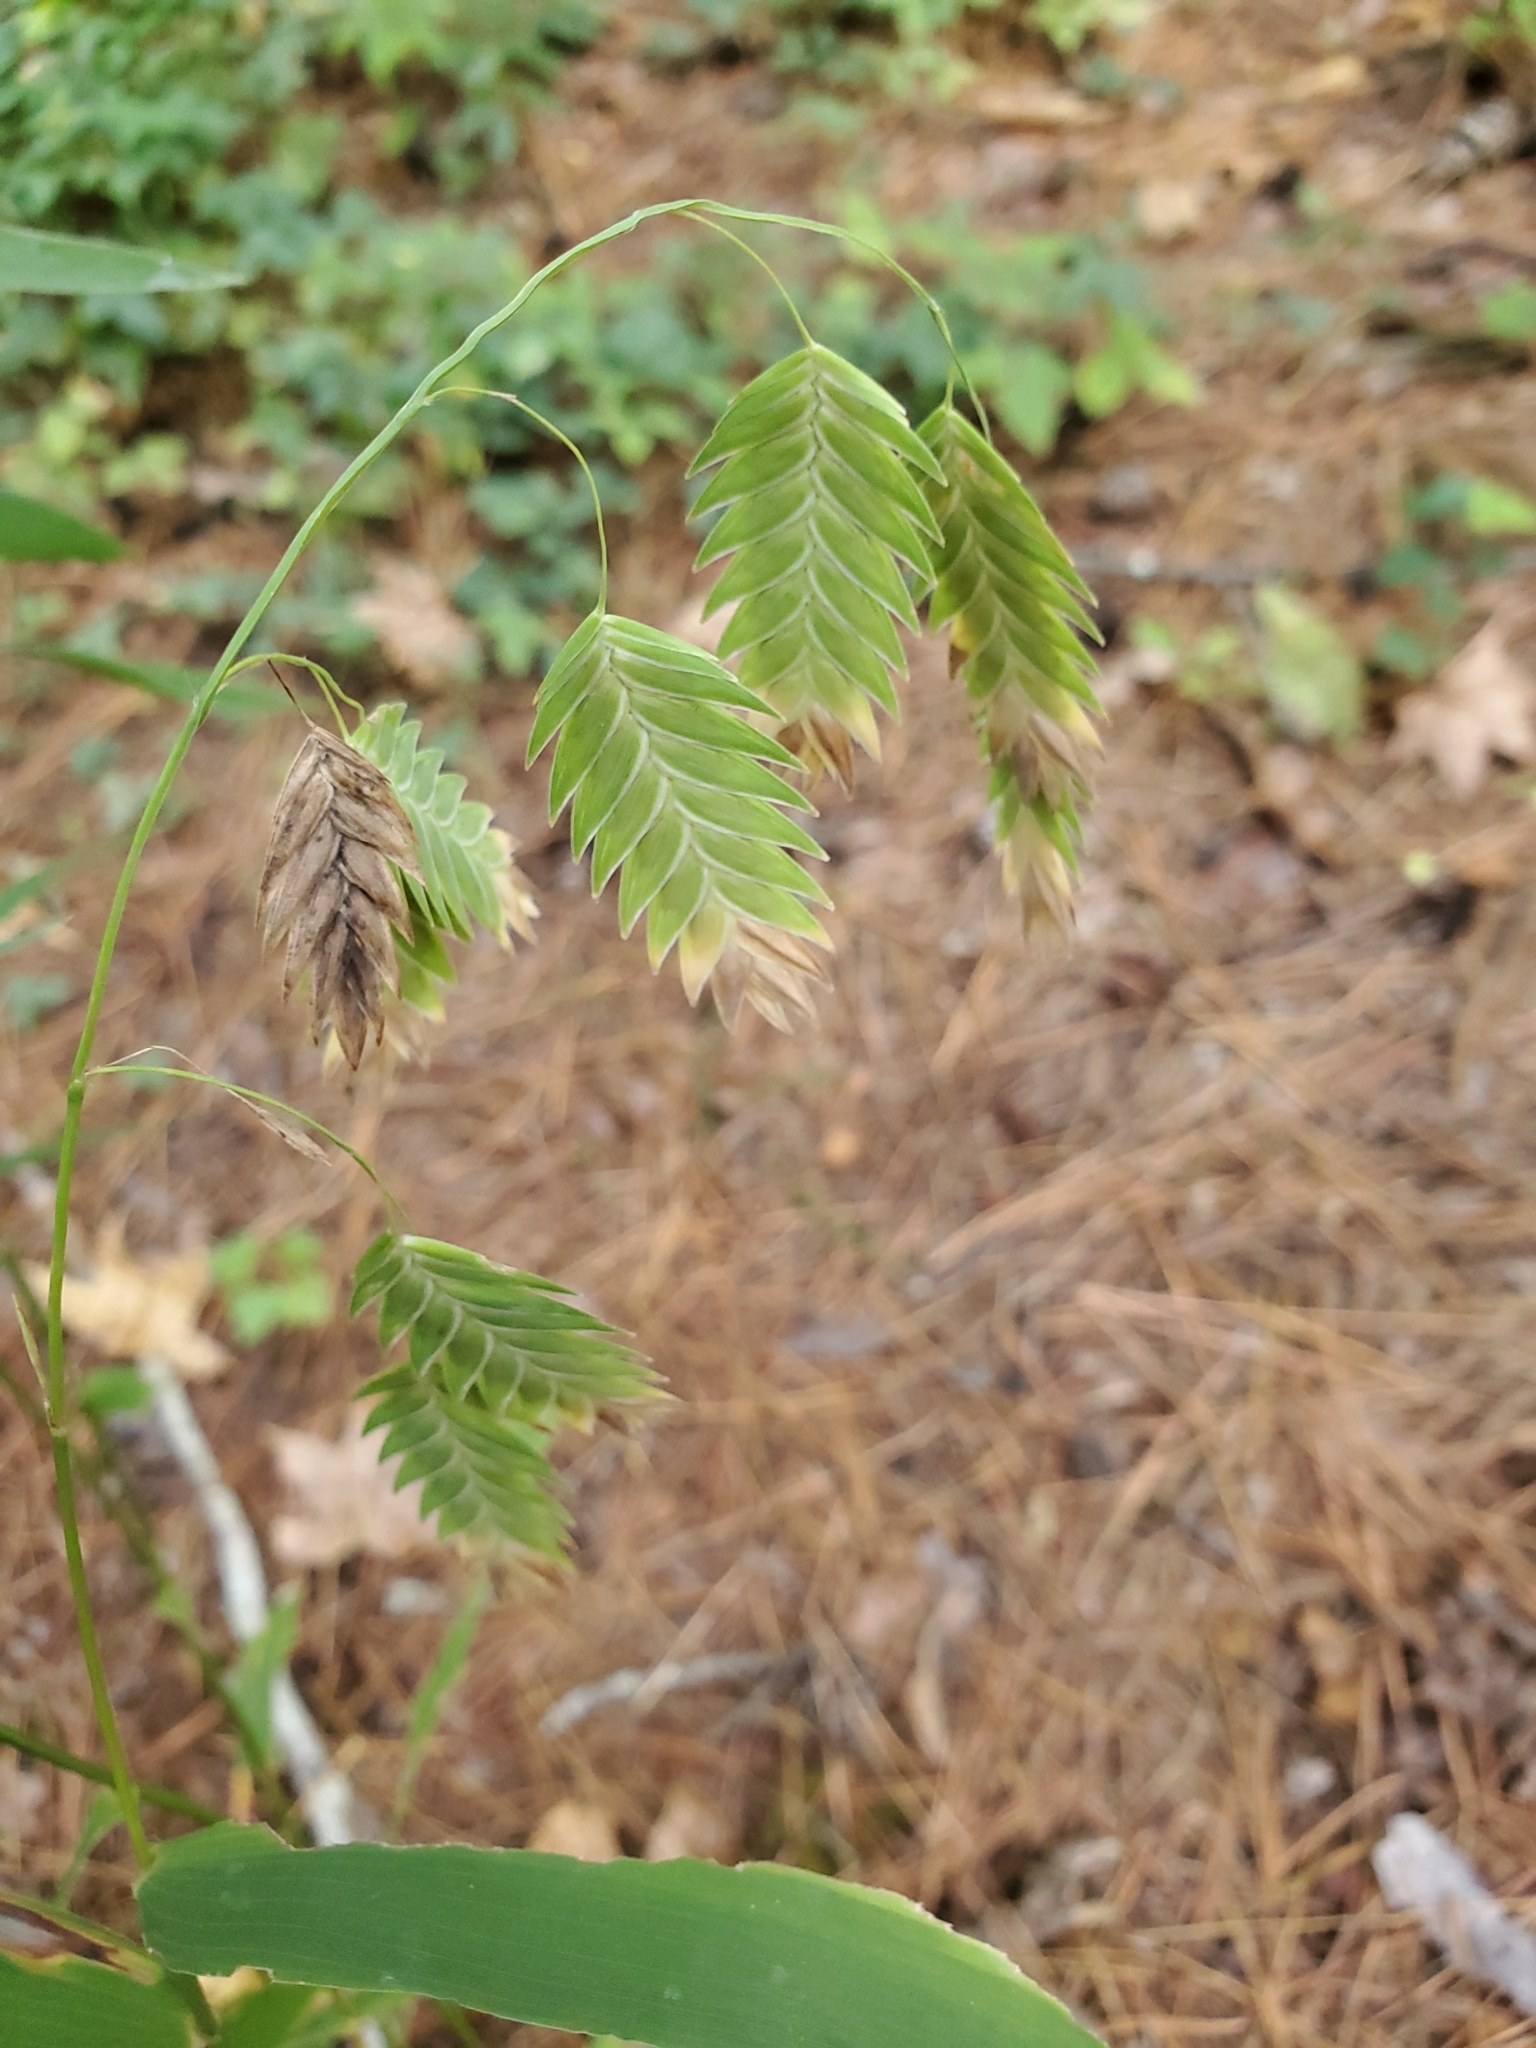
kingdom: Plantae
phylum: Tracheophyta
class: Liliopsida
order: Poales
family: Poaceae
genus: Chasmanthium
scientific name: Chasmanthium latifolium
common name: Broad-leaved chasmanthium
